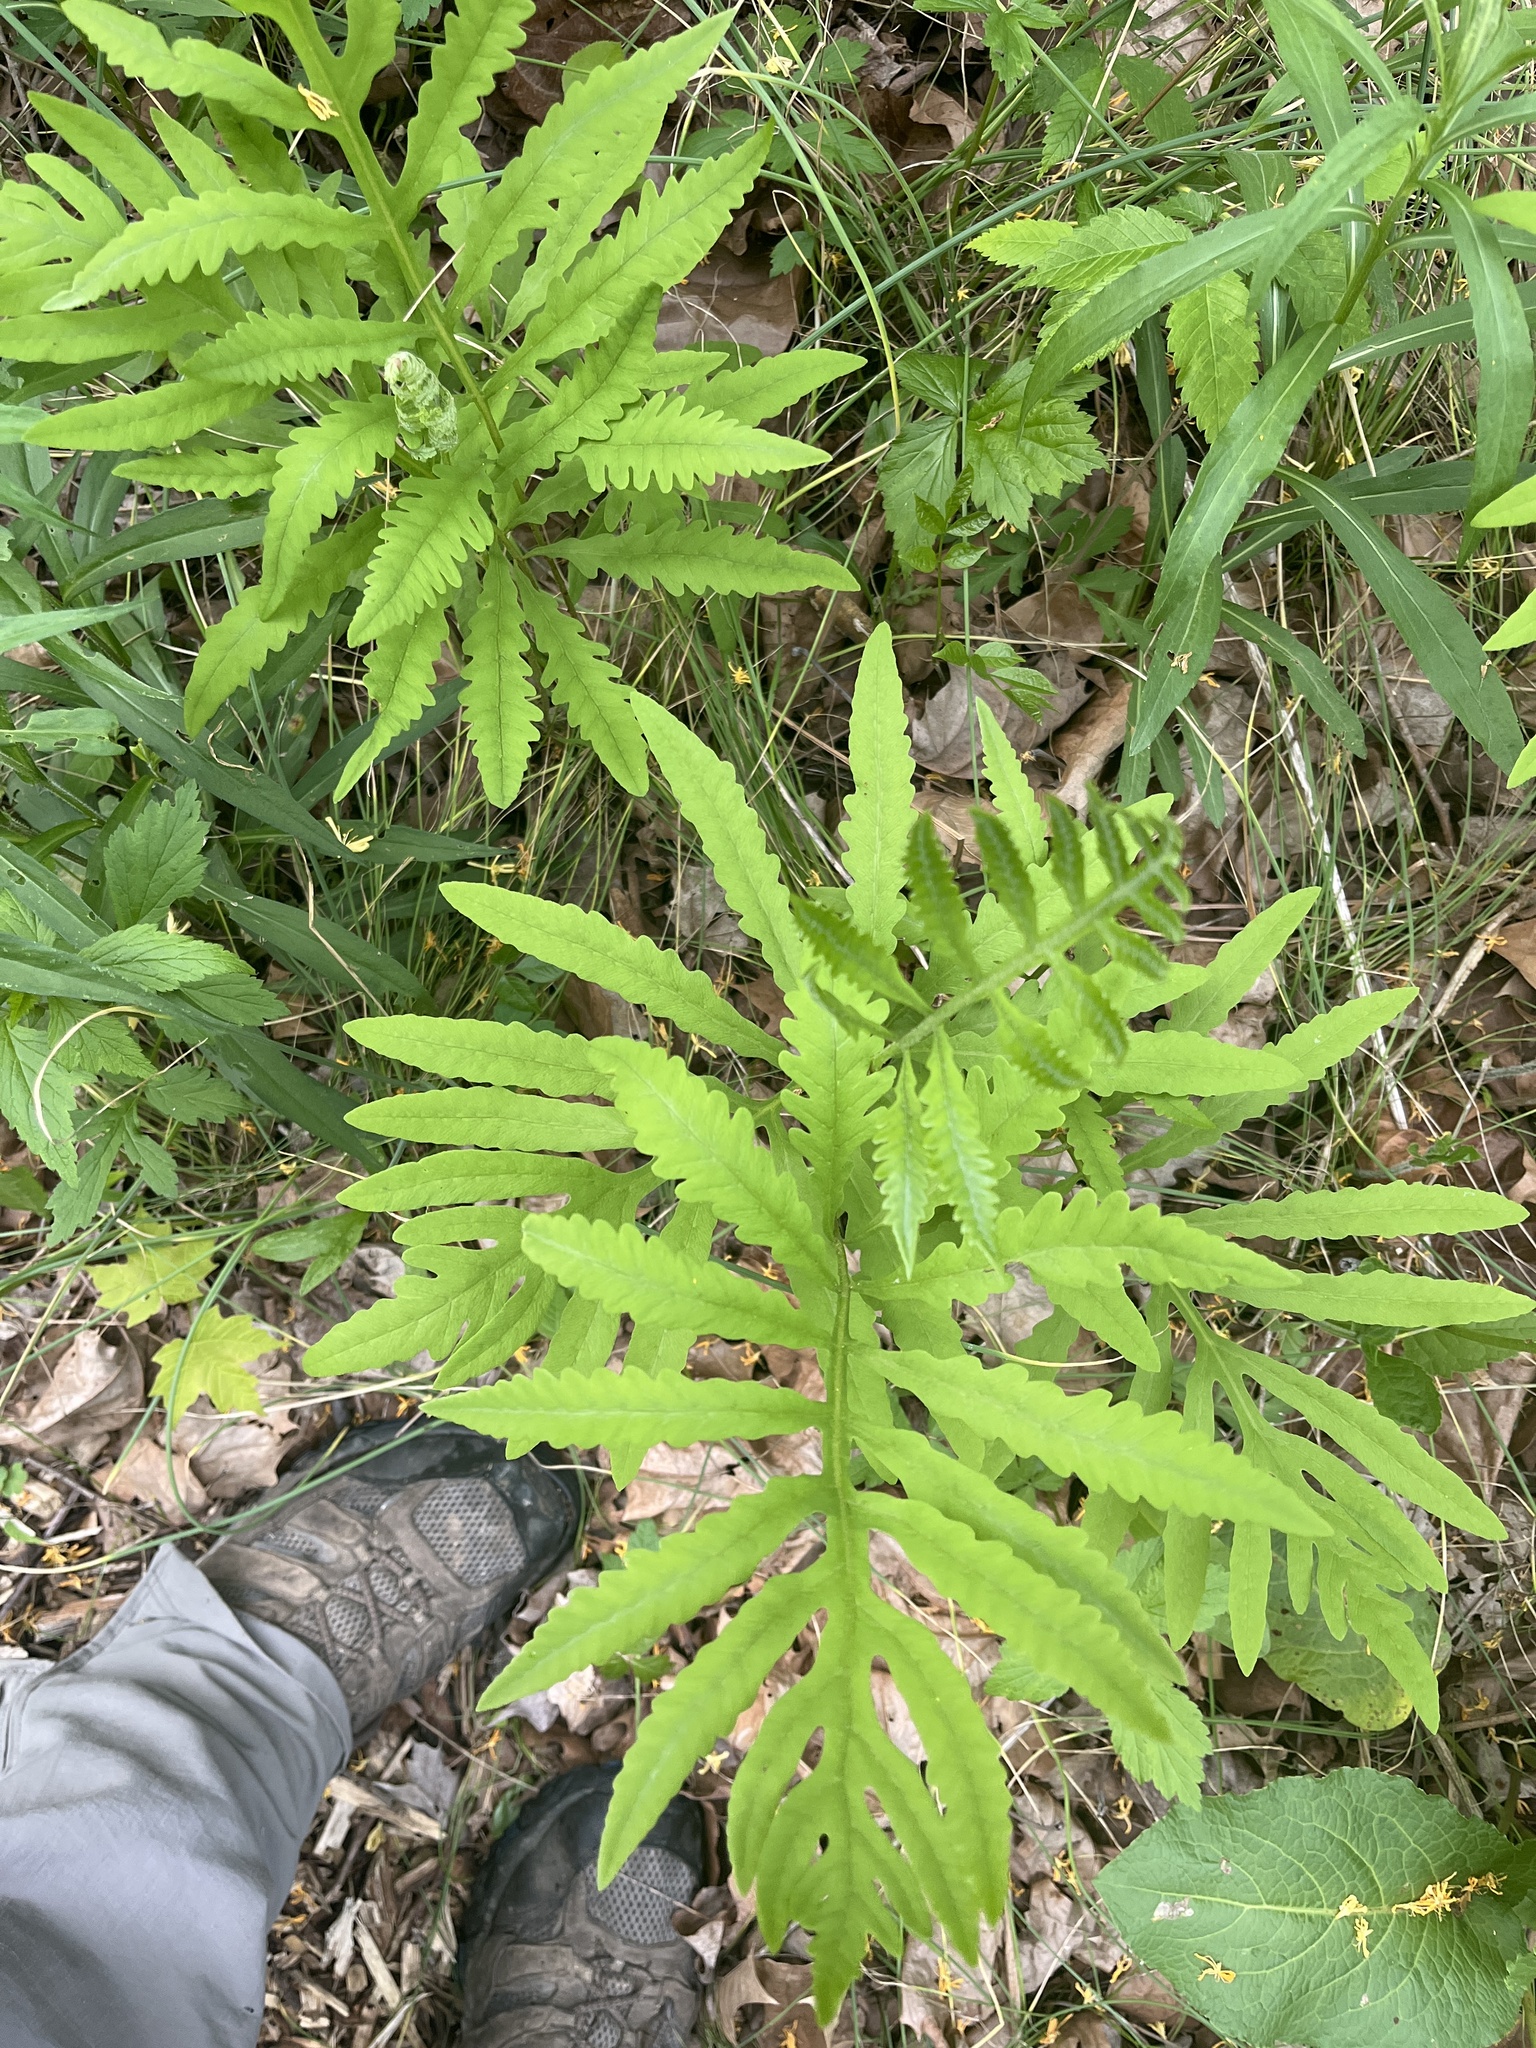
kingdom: Plantae
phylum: Tracheophyta
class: Polypodiopsida
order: Polypodiales
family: Onocleaceae
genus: Onoclea
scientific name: Onoclea sensibilis
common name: Sensitive fern
